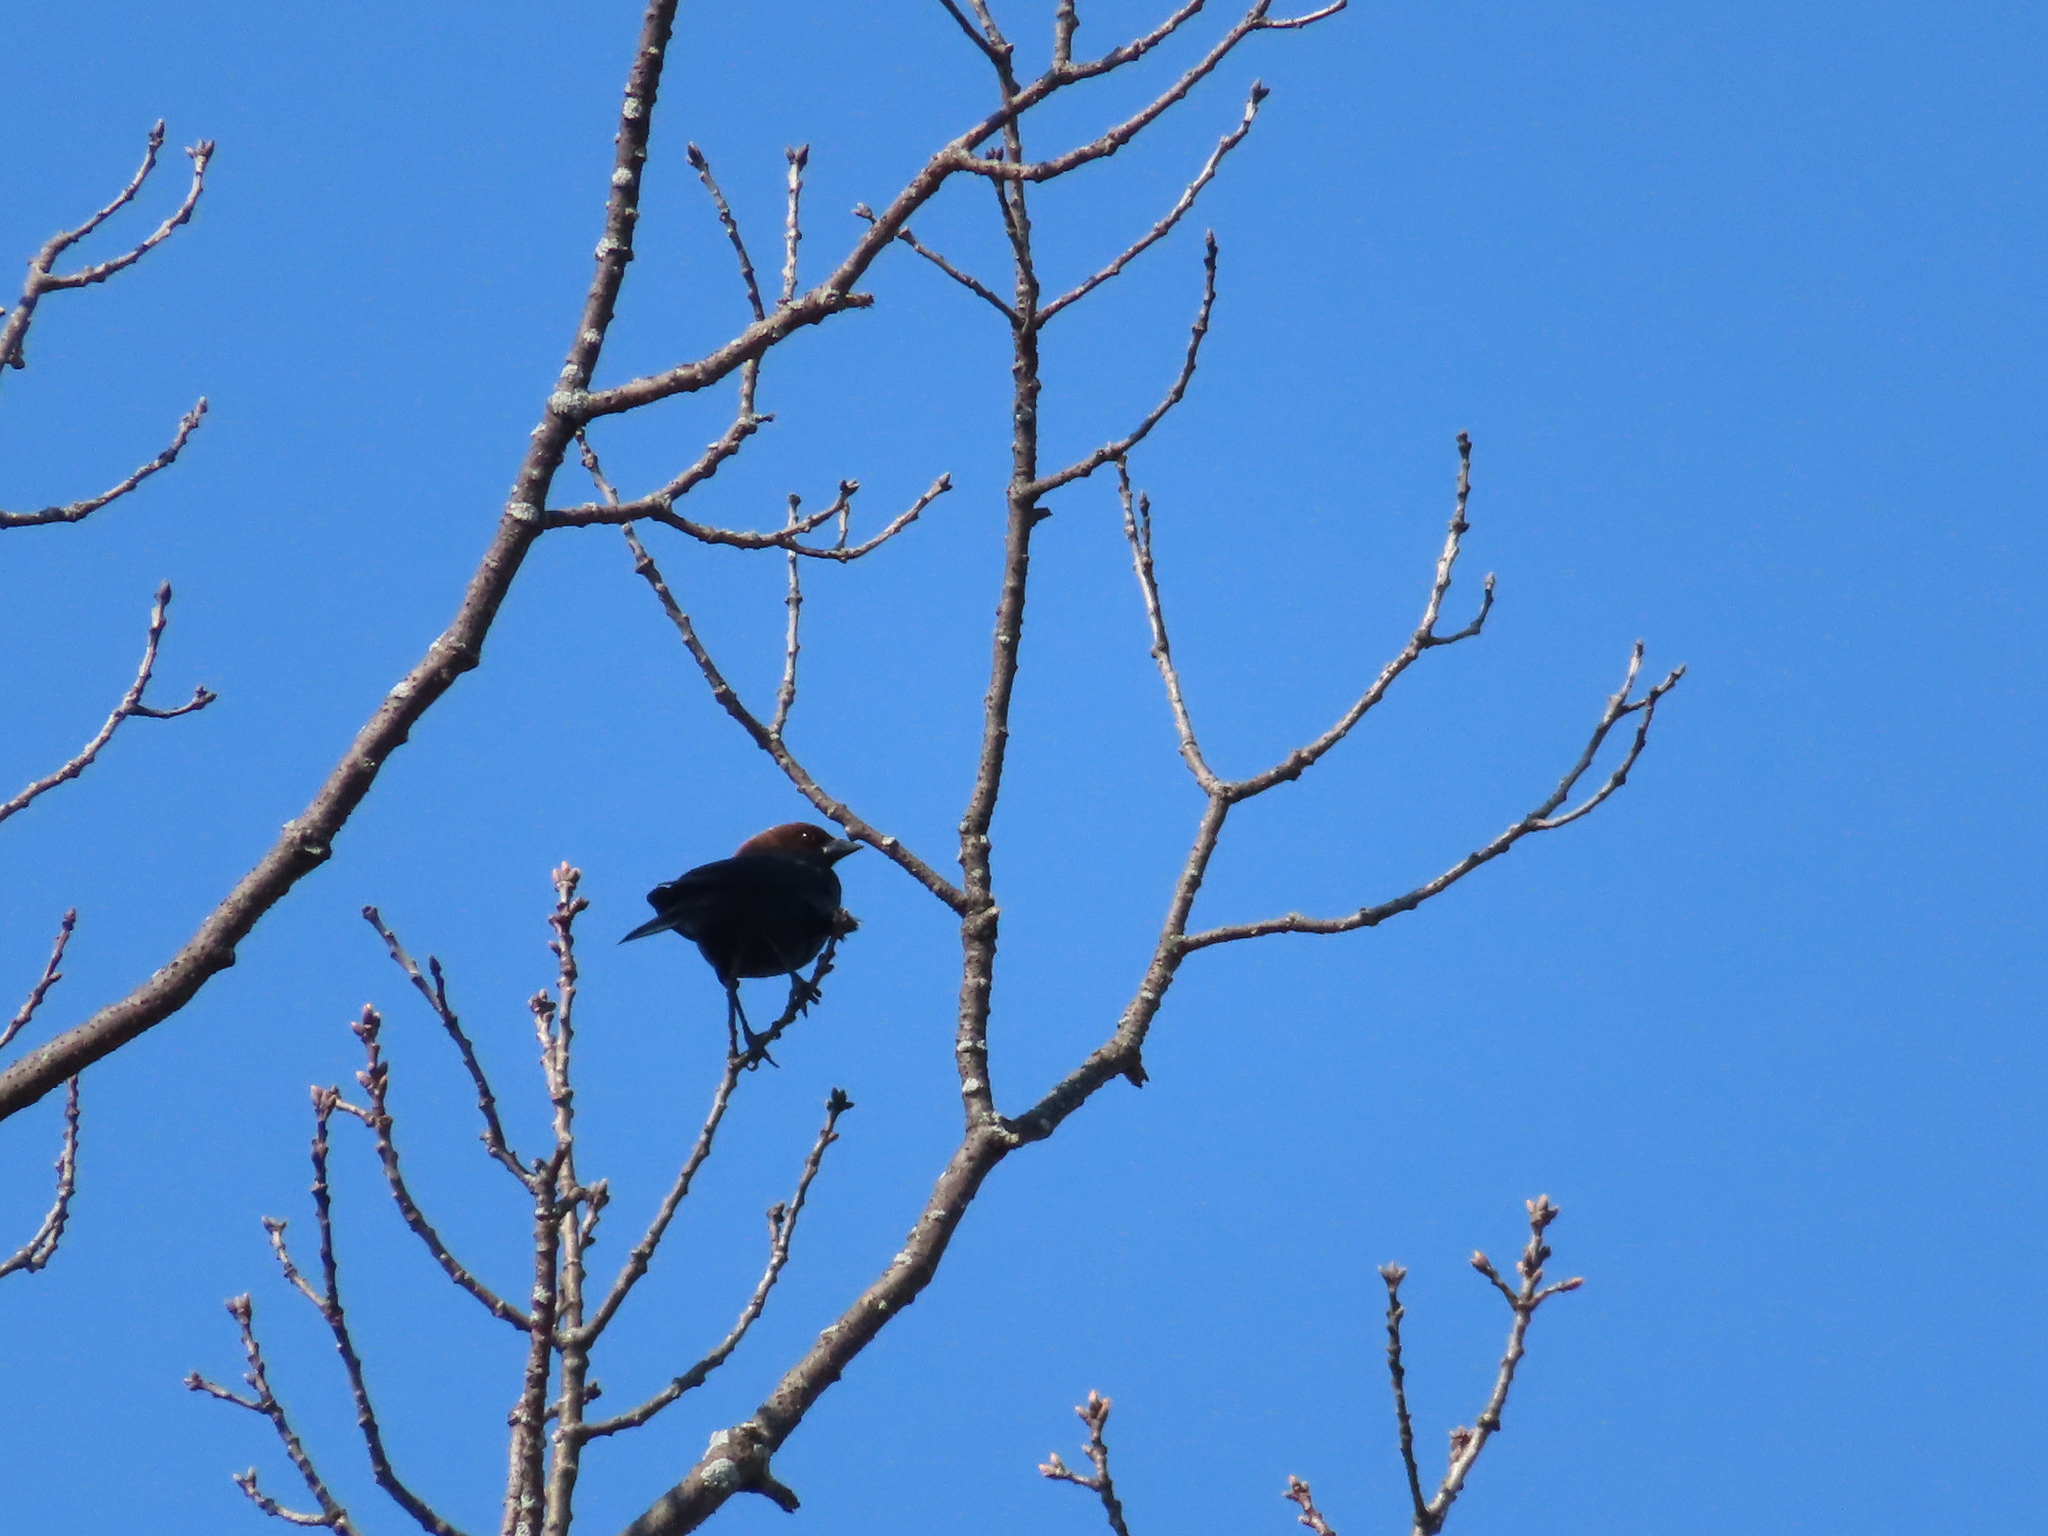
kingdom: Animalia
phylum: Chordata
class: Aves
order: Passeriformes
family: Icteridae
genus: Molothrus
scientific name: Molothrus ater
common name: Brown-headed cowbird
